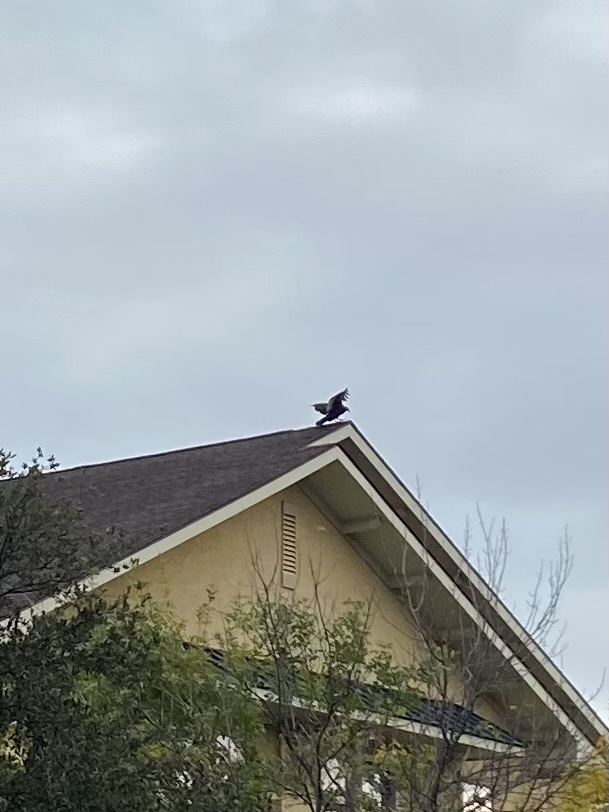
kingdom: Animalia
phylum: Chordata
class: Aves
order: Accipitriformes
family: Cathartidae
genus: Cathartes
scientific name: Cathartes aura
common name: Turkey vulture
